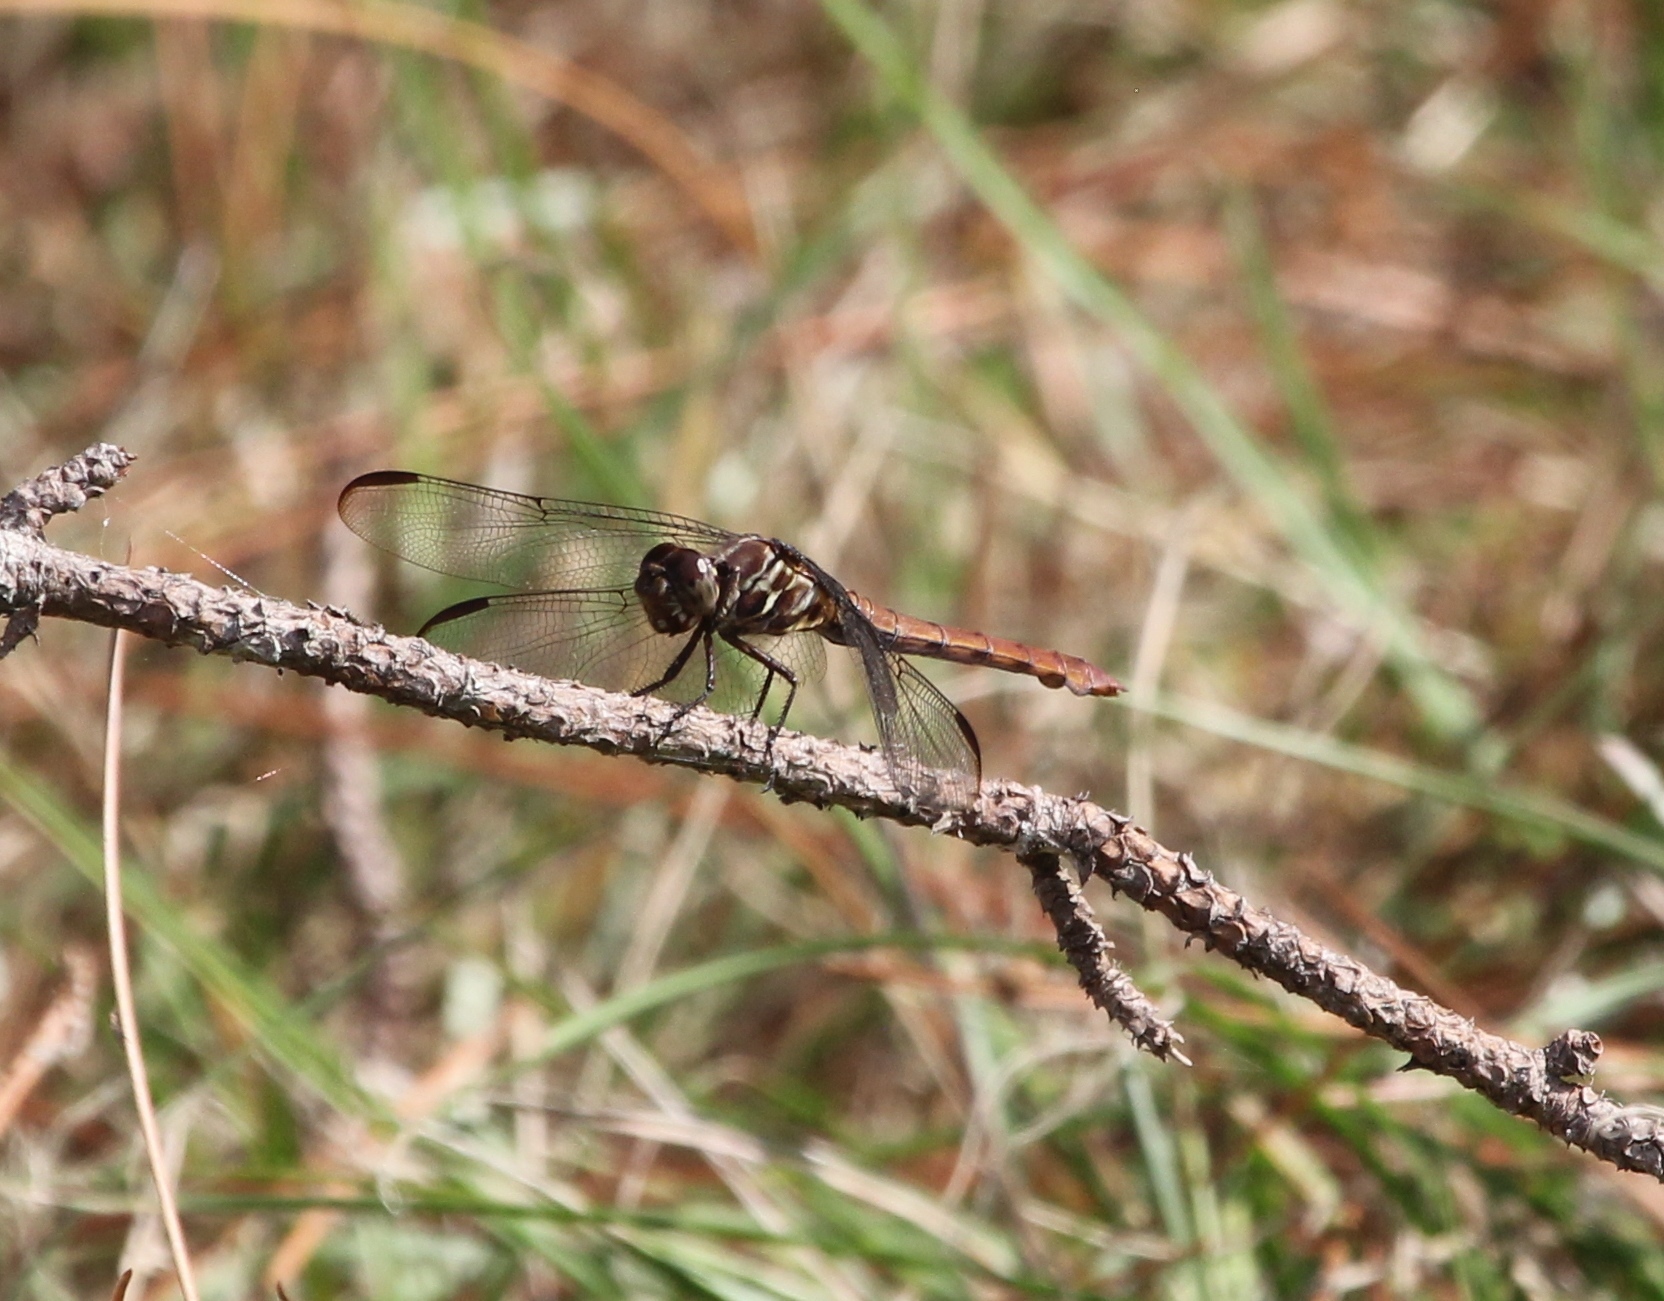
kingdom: Animalia
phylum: Arthropoda
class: Insecta
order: Odonata
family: Libellulidae
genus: Orthemis
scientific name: Orthemis ferruginea
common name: Roseate skimmer
